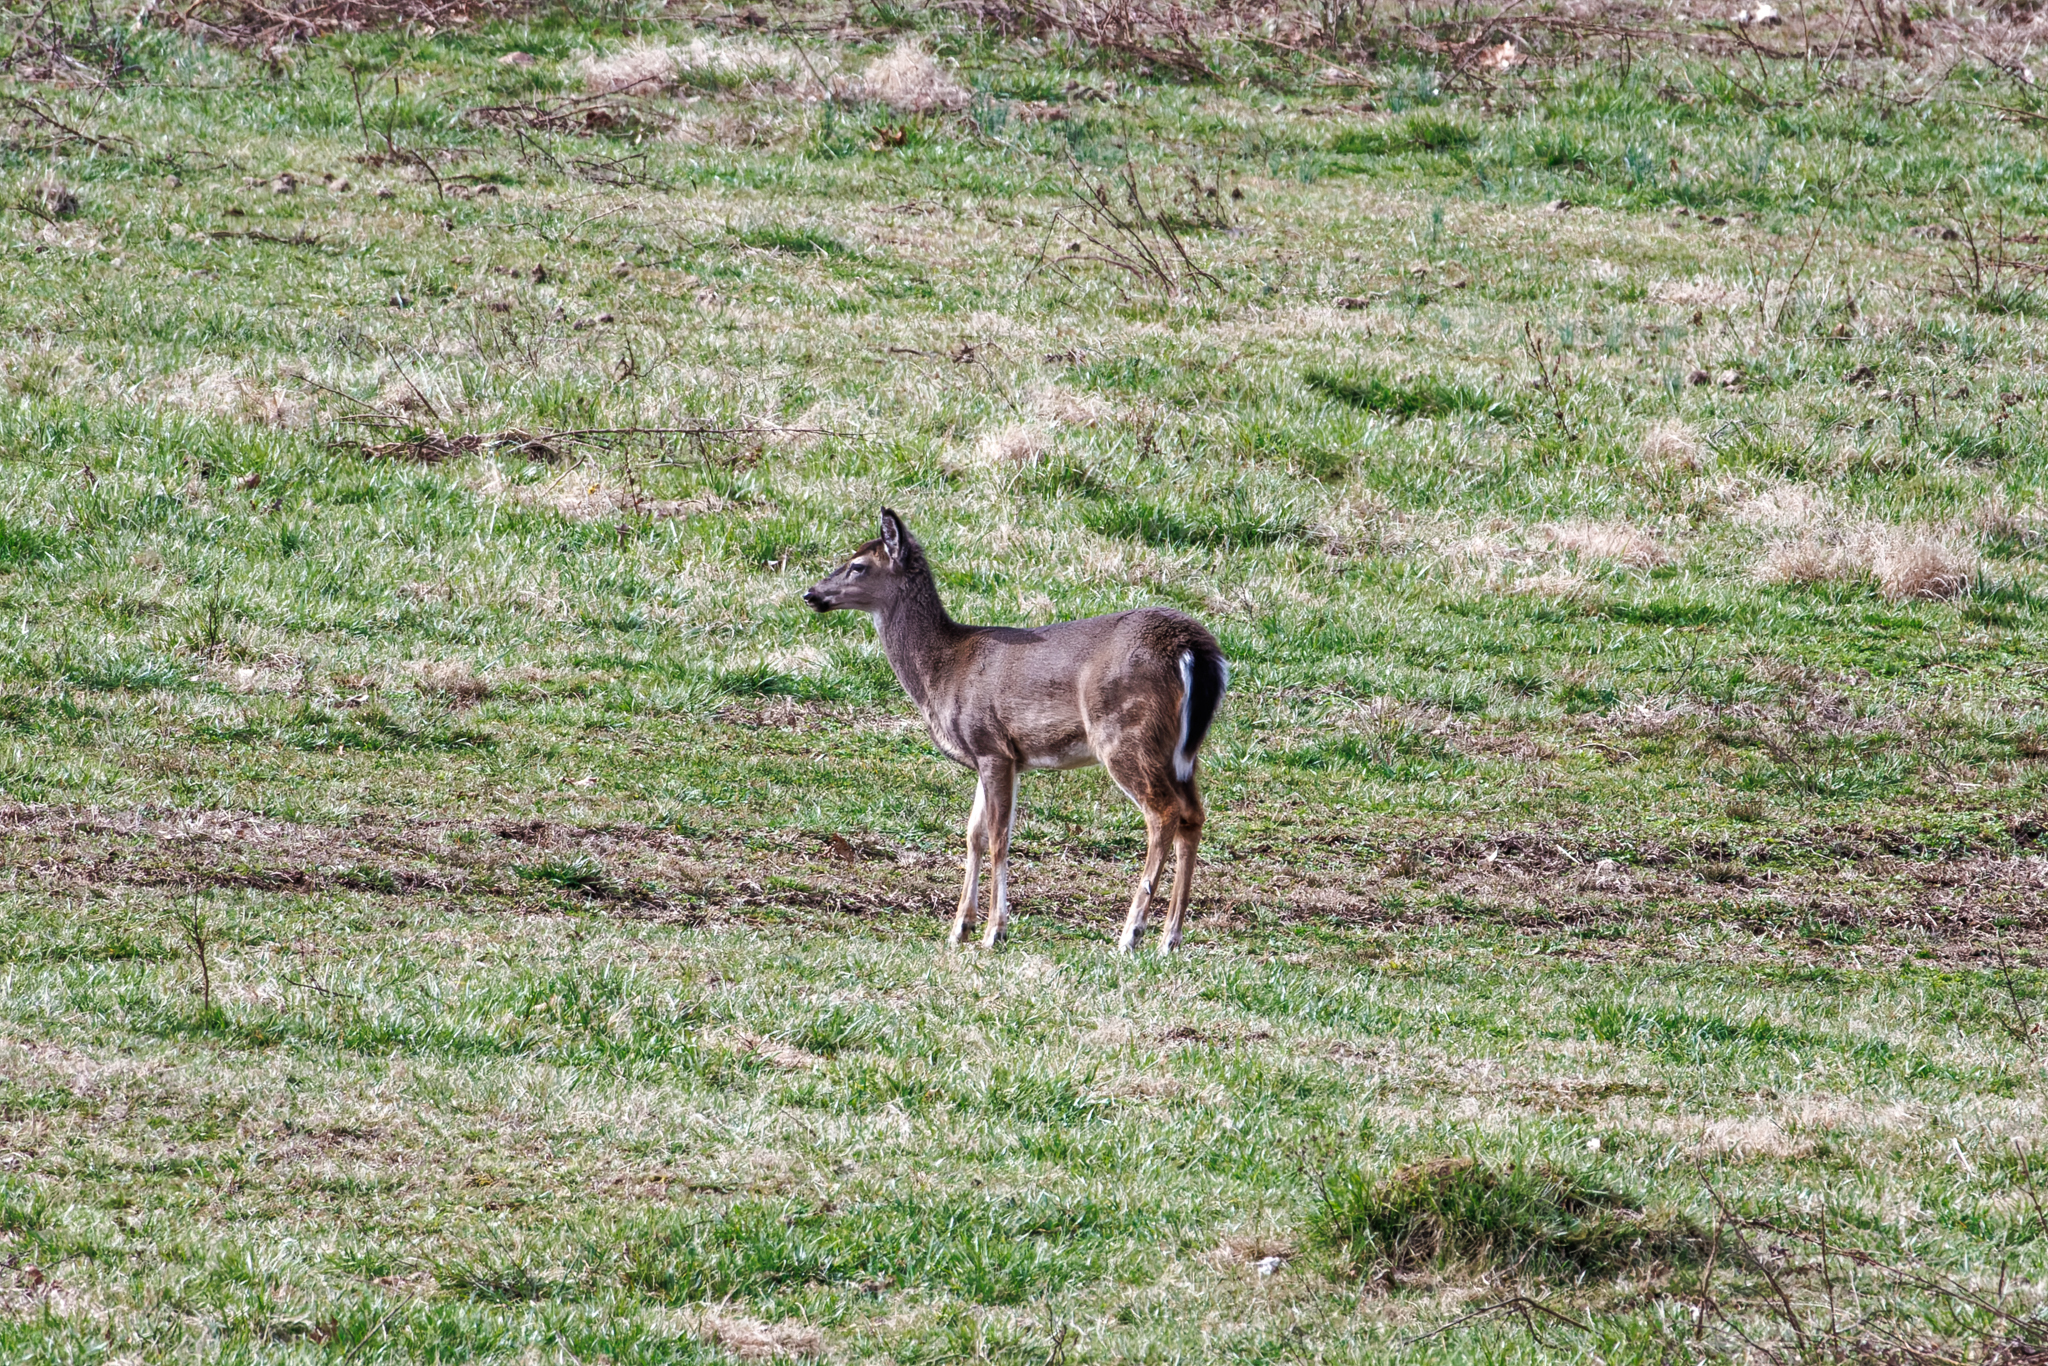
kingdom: Animalia
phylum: Chordata
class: Mammalia
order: Artiodactyla
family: Cervidae
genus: Odocoileus
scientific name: Odocoileus virginianus
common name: White-tailed deer
